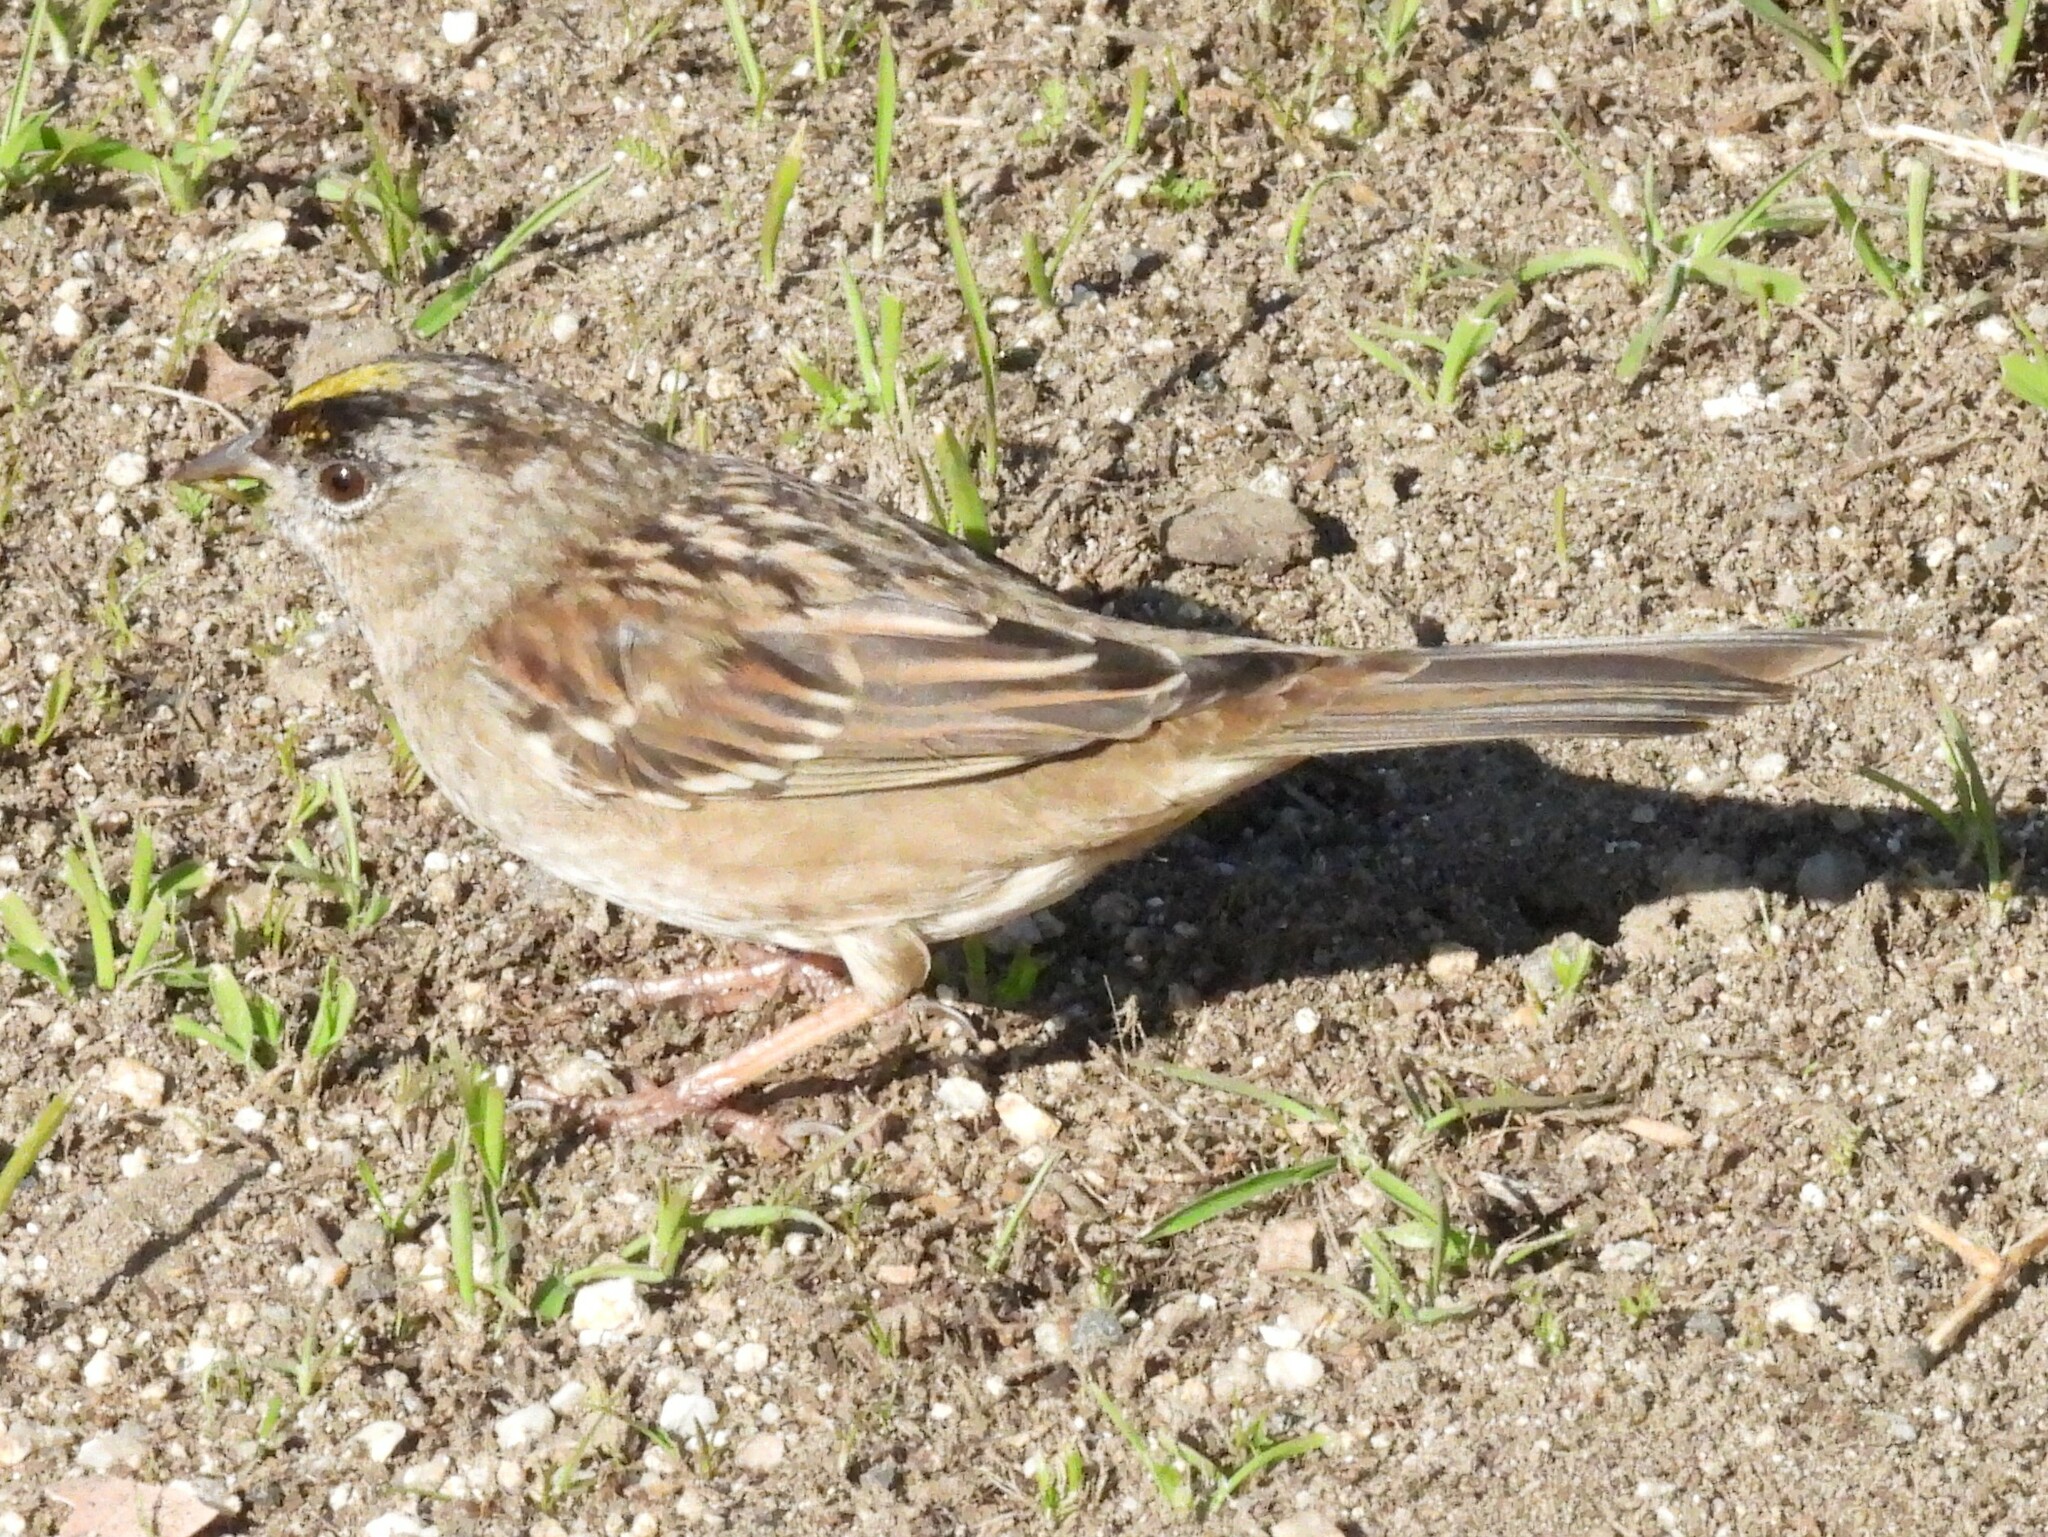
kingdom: Animalia
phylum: Chordata
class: Aves
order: Passeriformes
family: Passerellidae
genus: Zonotrichia
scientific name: Zonotrichia atricapilla
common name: Golden-crowned sparrow
